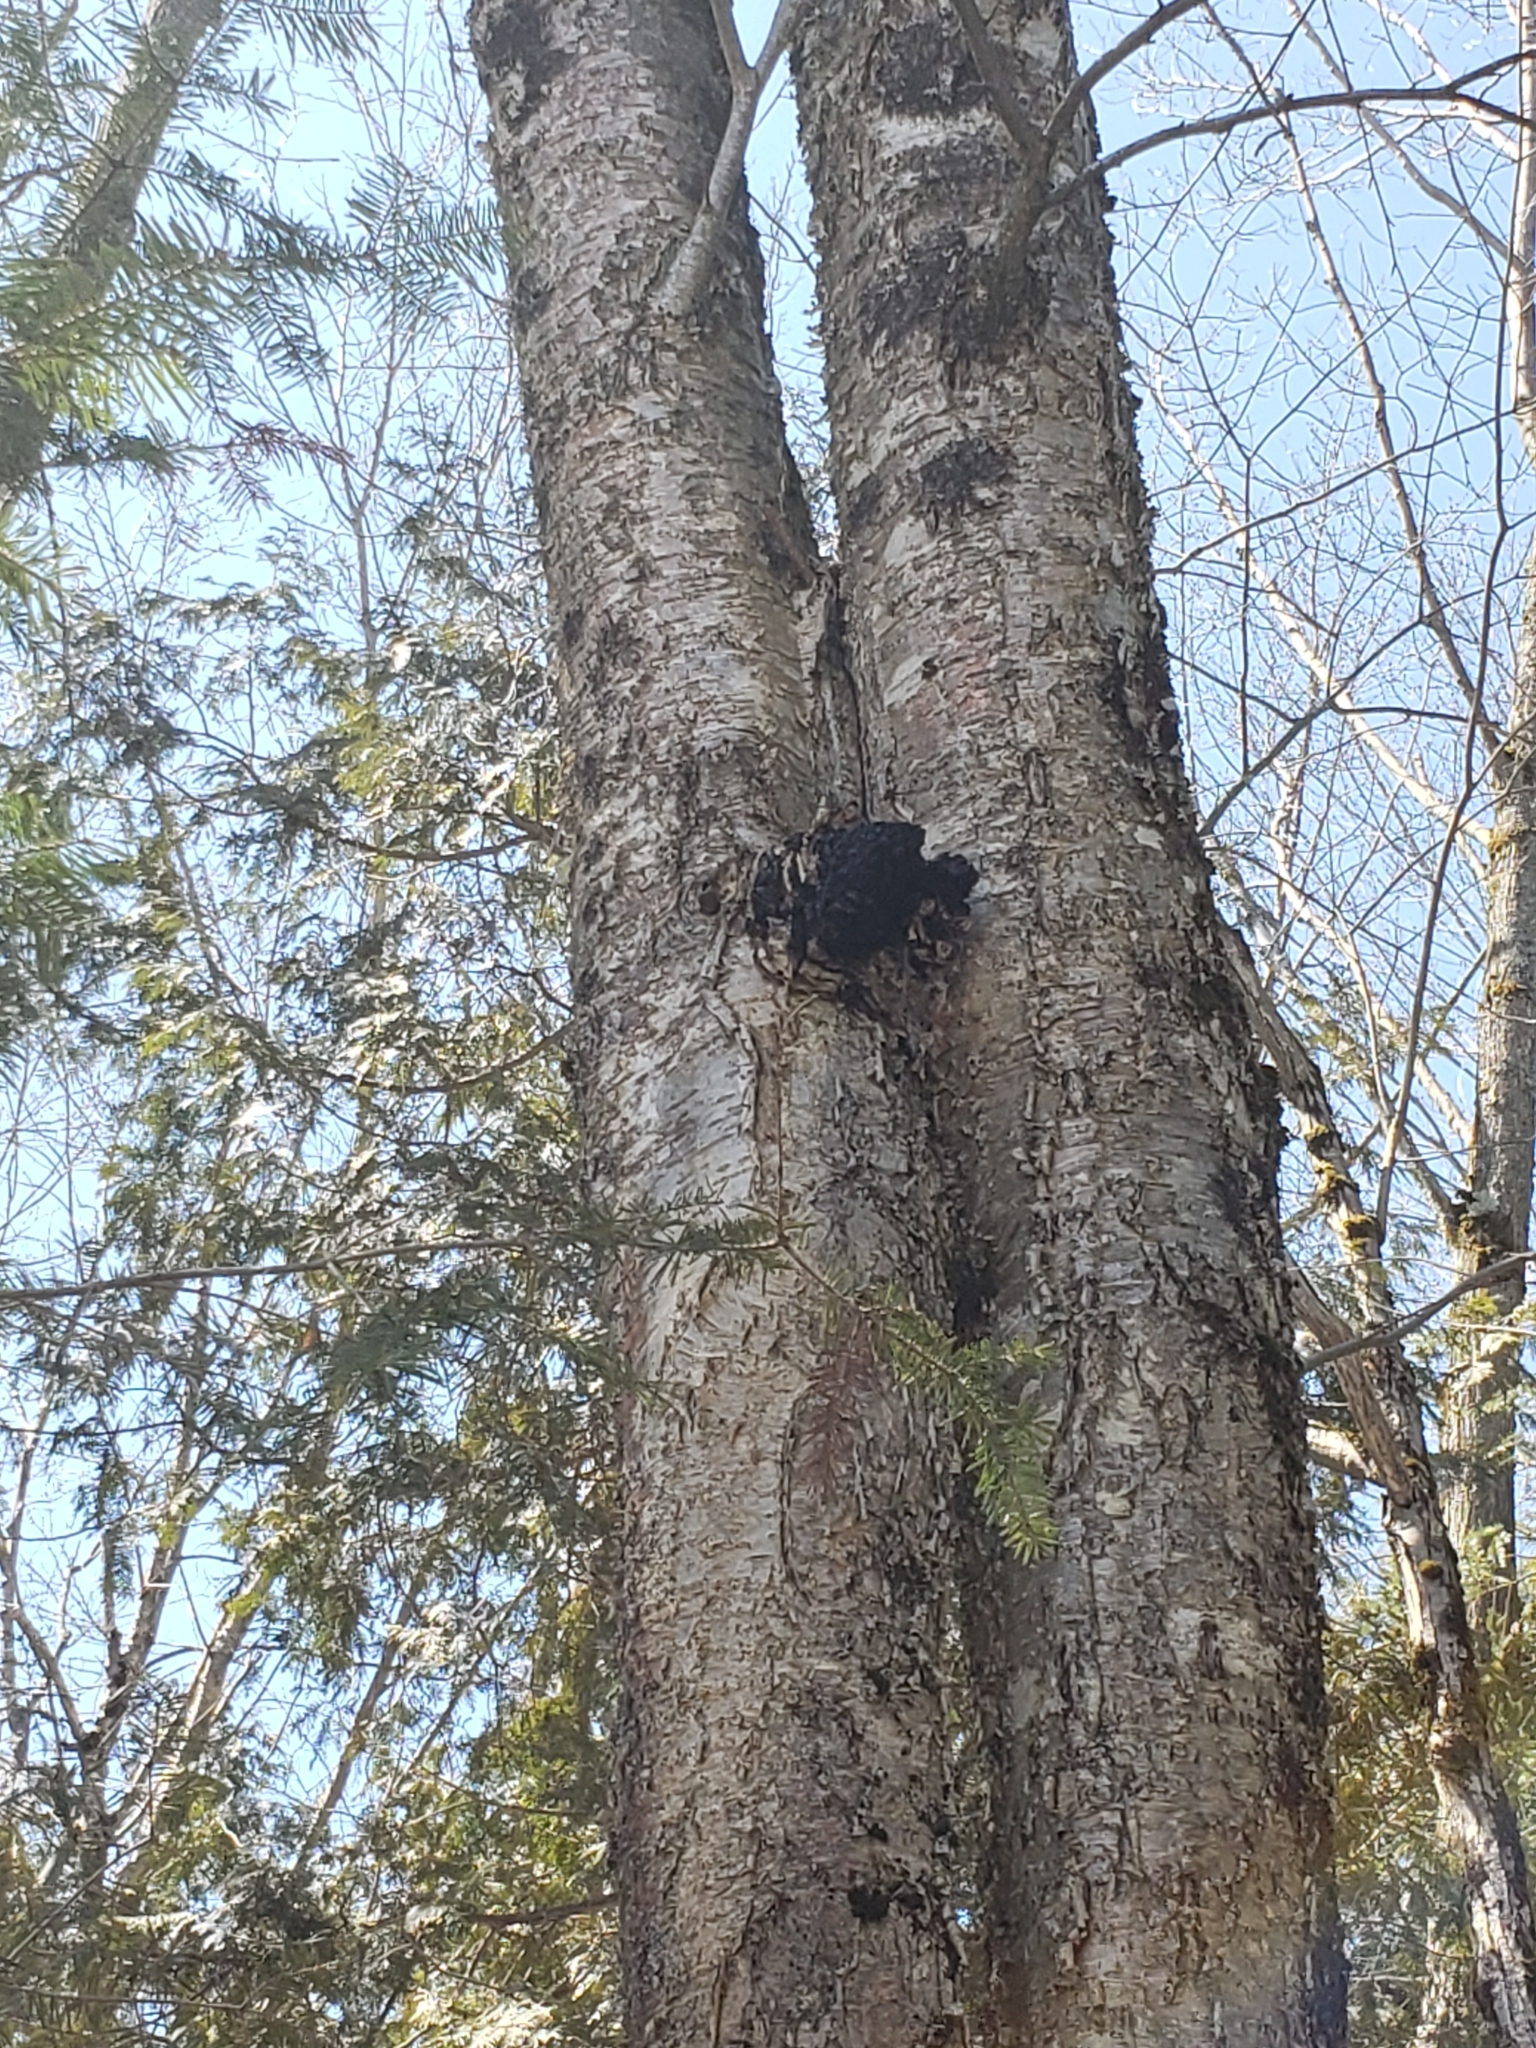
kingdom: Fungi
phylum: Basidiomycota
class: Agaricomycetes
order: Hymenochaetales
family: Hymenochaetaceae
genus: Inonotus
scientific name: Inonotus obliquus
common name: Chaga
